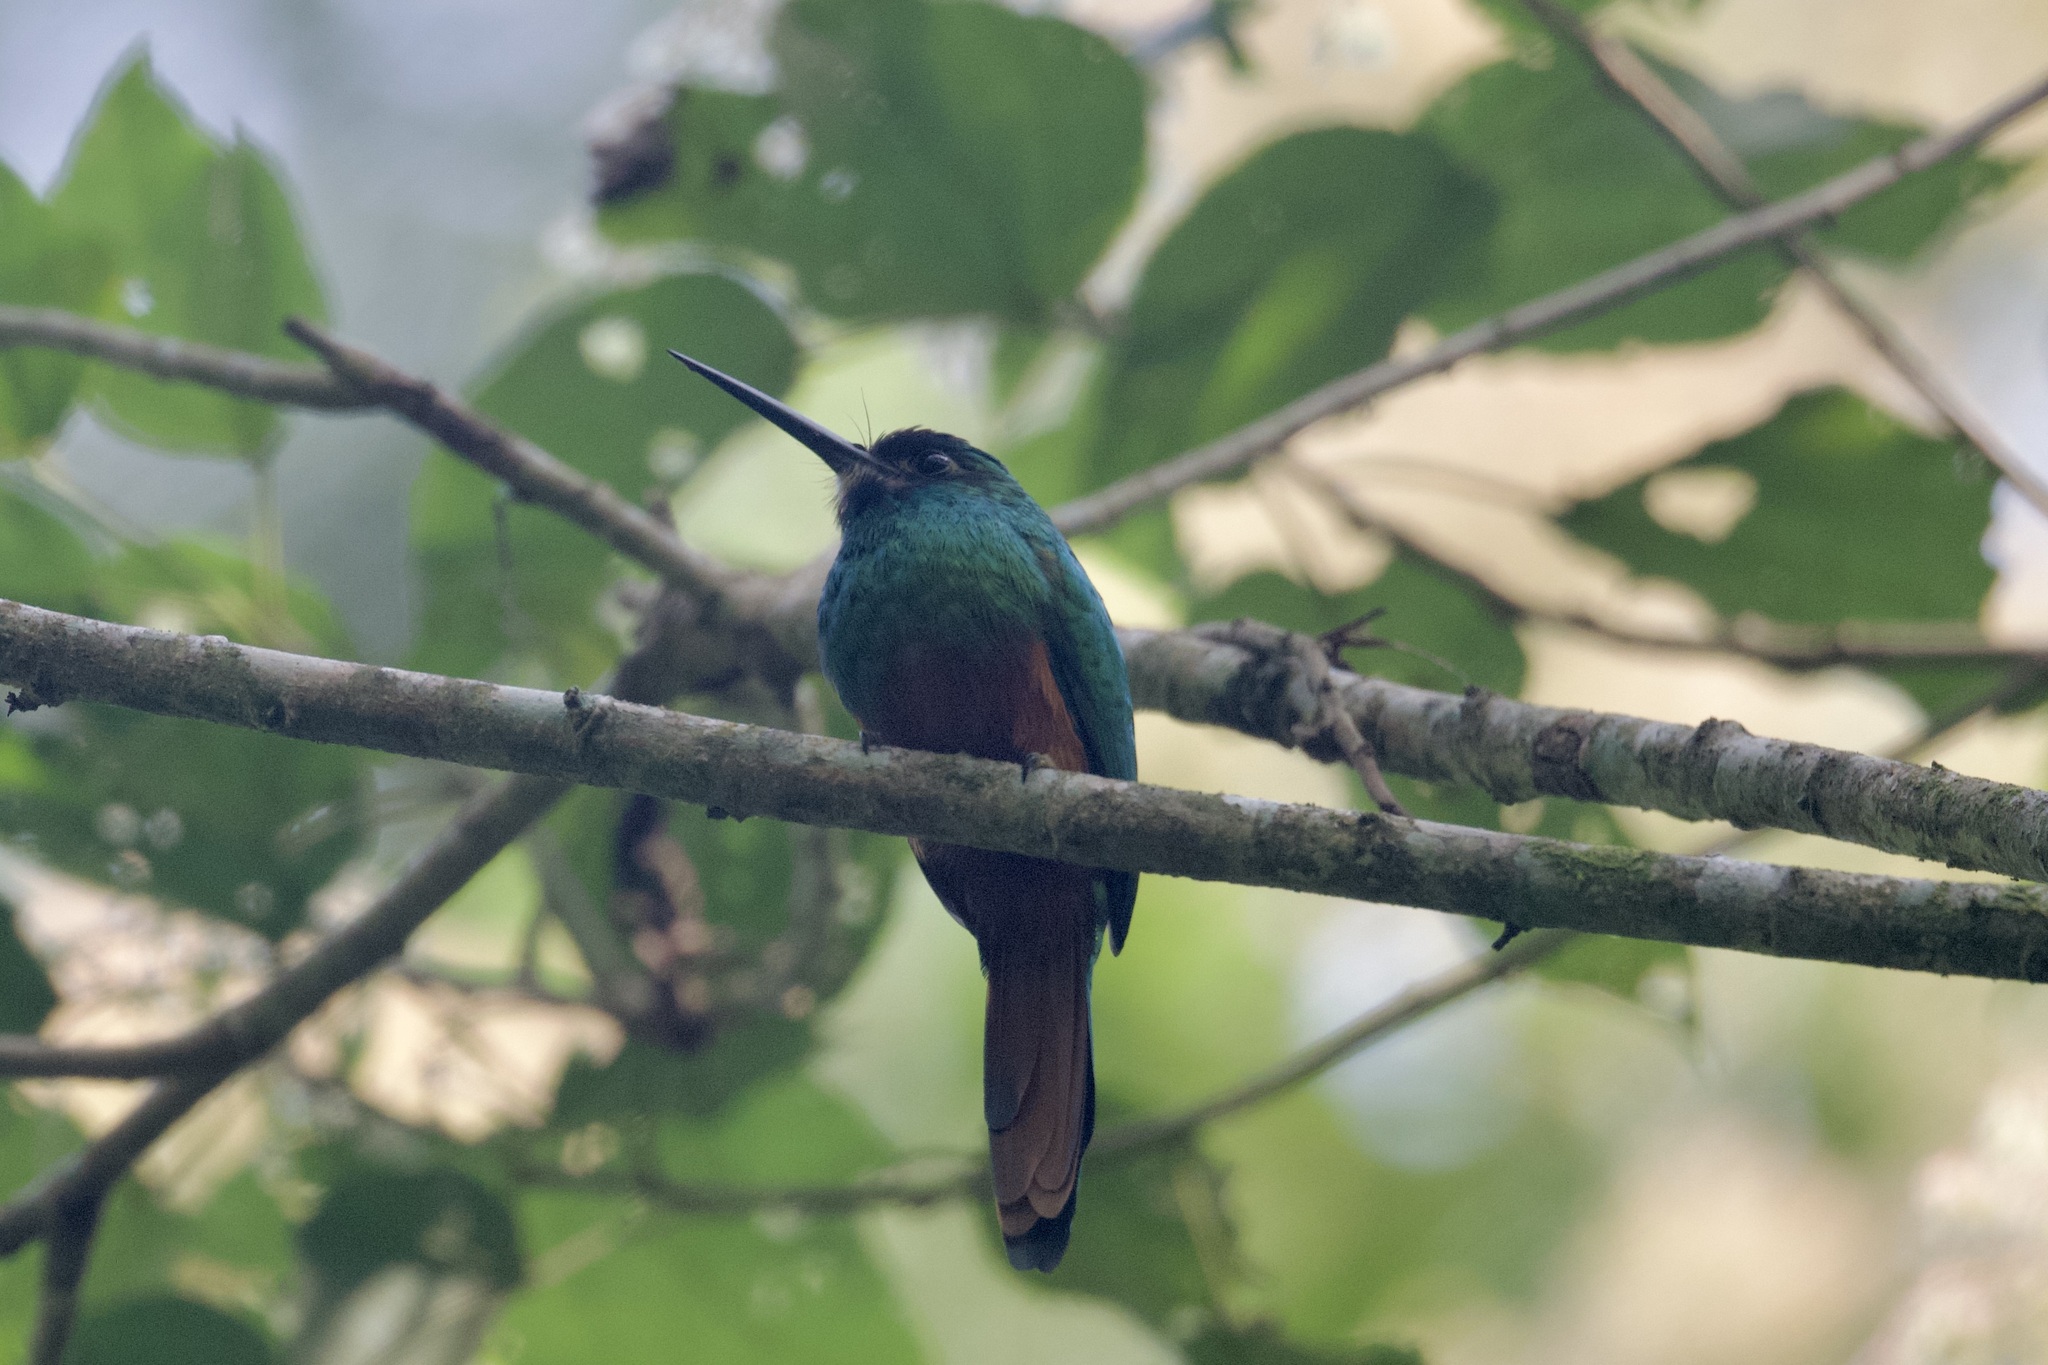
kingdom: Animalia
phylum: Chordata
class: Aves
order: Piciformes
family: Galbulidae
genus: Galbula
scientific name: Galbula tombacea
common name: White-chinned jacamar
